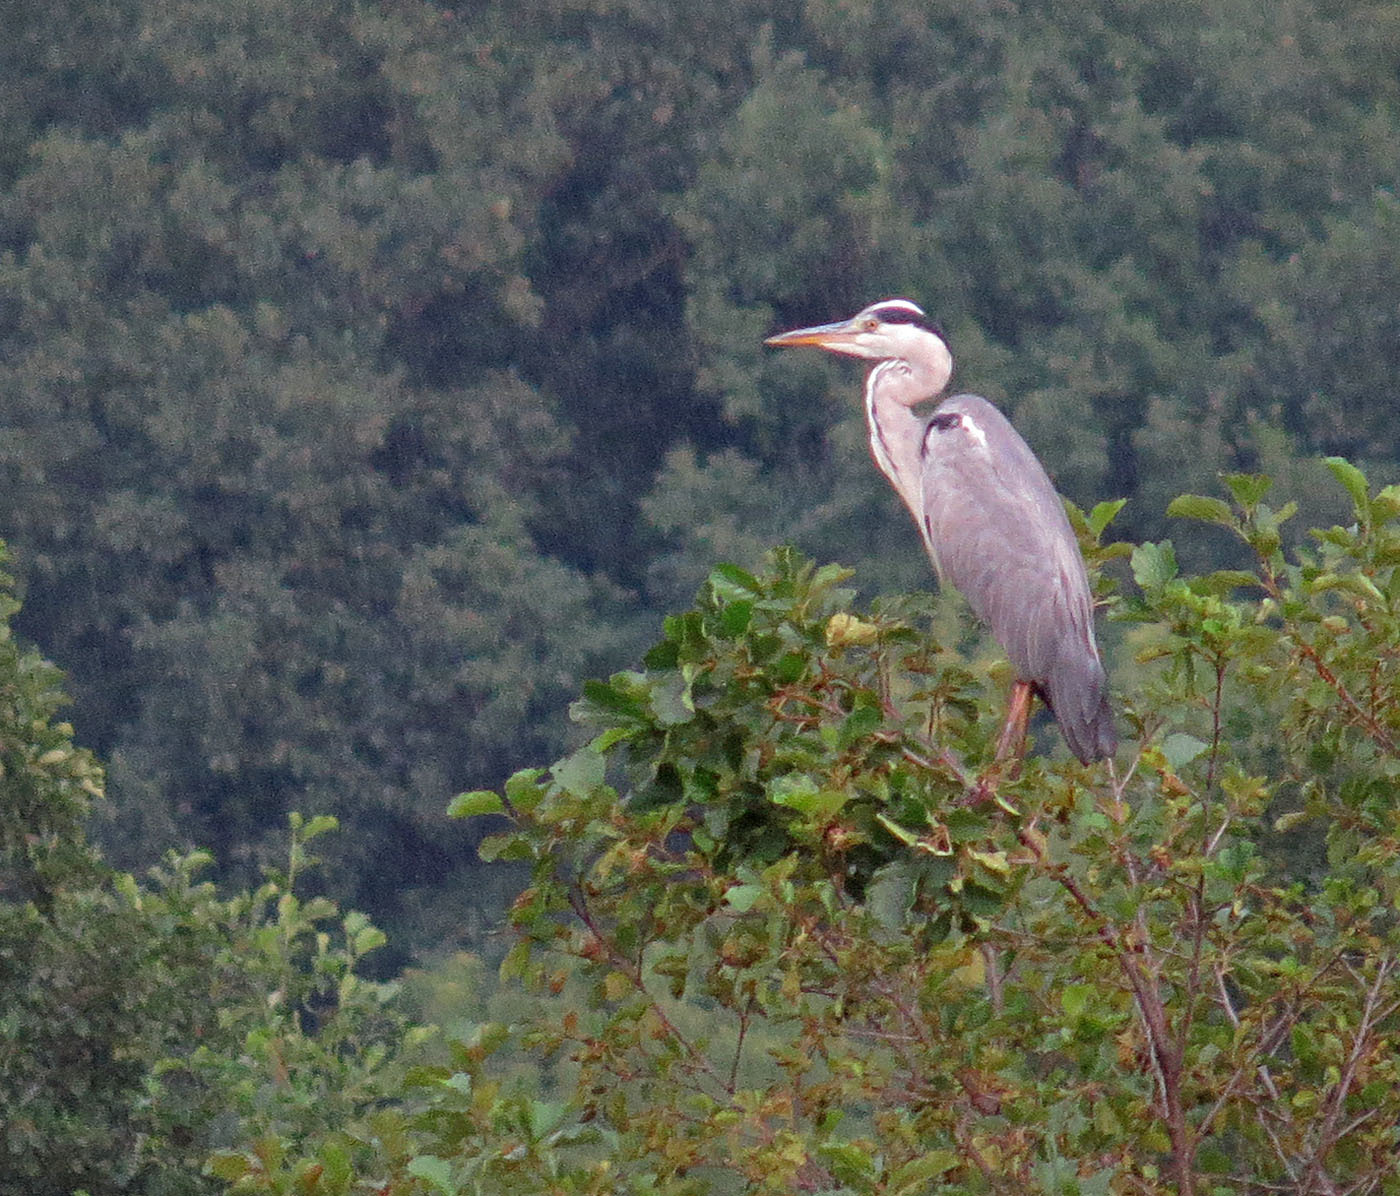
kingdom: Animalia
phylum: Chordata
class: Aves
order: Pelecaniformes
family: Ardeidae
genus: Ardea
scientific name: Ardea cinerea
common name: Grey heron
